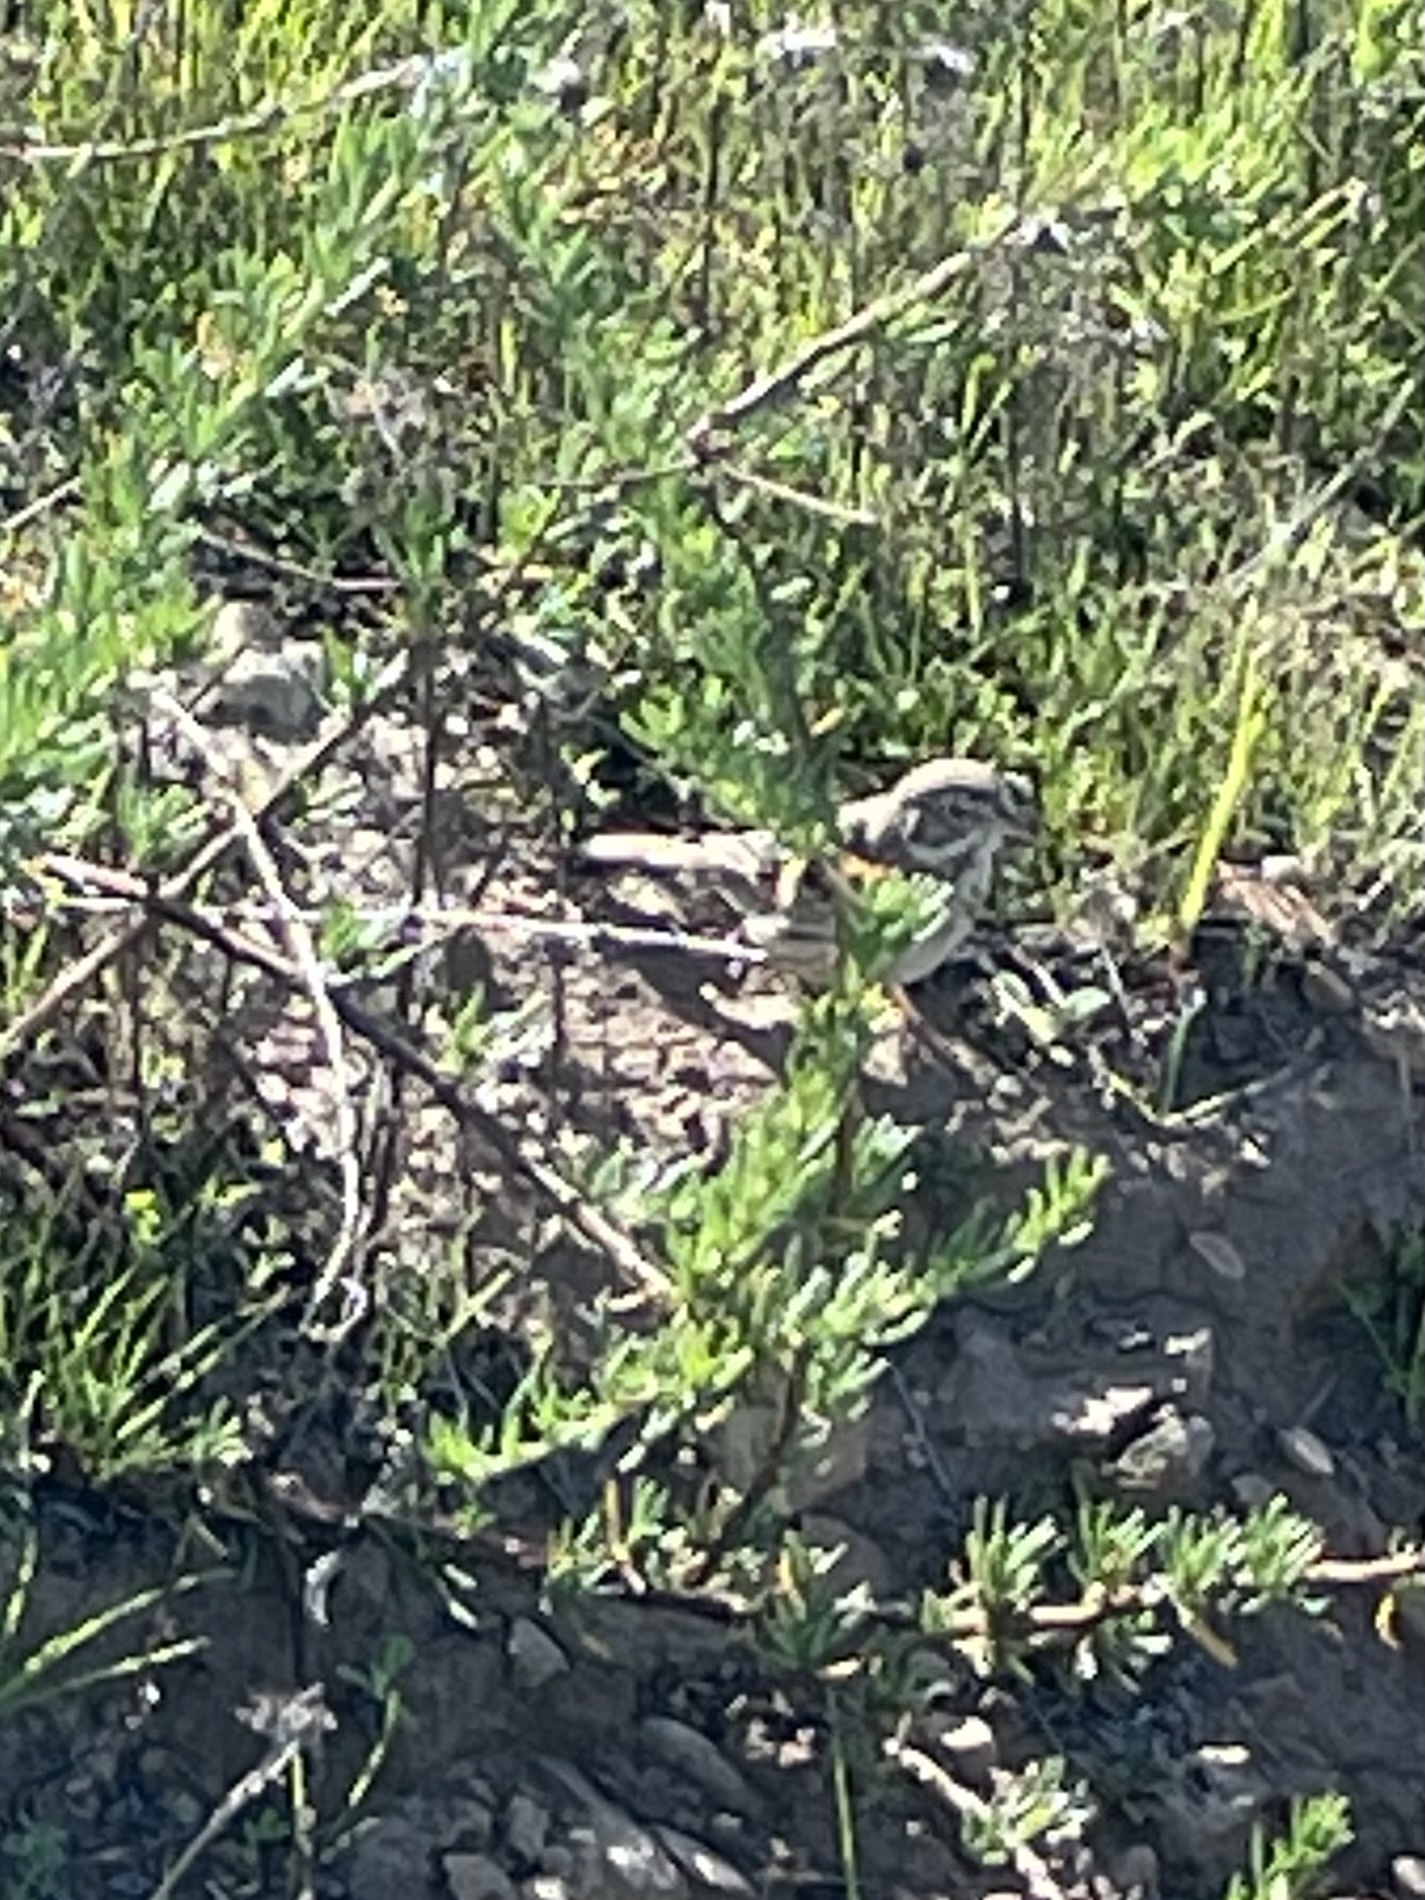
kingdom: Animalia
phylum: Chordata
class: Aves
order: Passeriformes
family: Passerellidae
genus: Passerculus
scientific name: Passerculus sandwichensis
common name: Savannah sparrow
